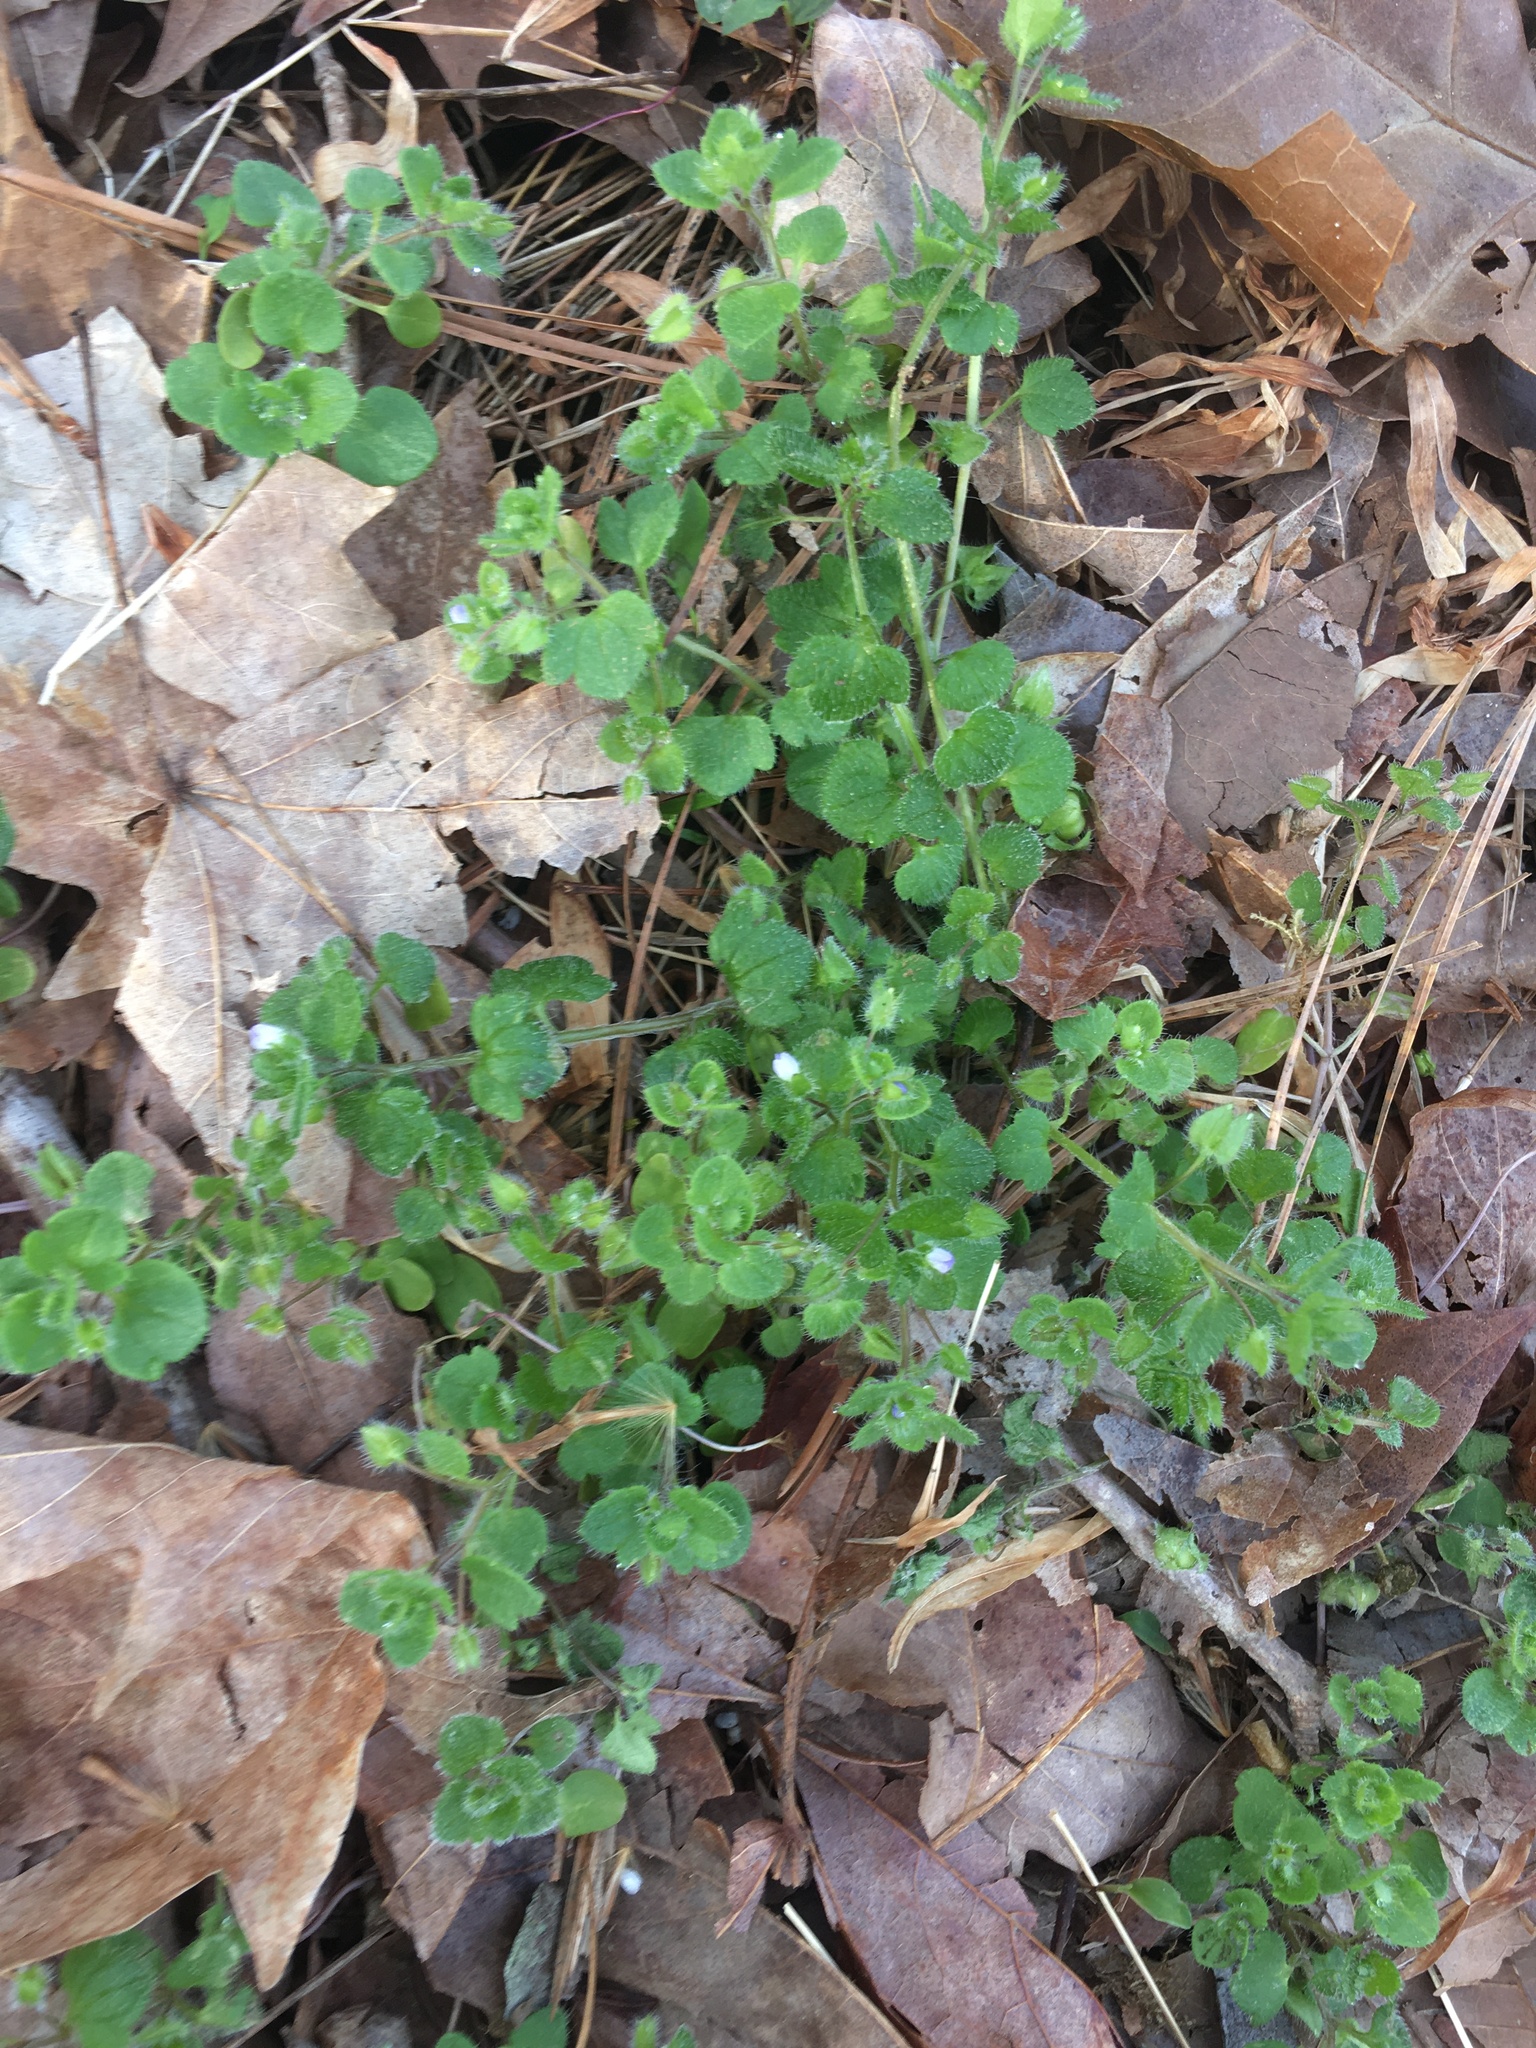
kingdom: Plantae
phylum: Tracheophyta
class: Magnoliopsida
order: Lamiales
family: Plantaginaceae
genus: Veronica
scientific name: Veronica hederifolia
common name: Ivy-leaved speedwell
